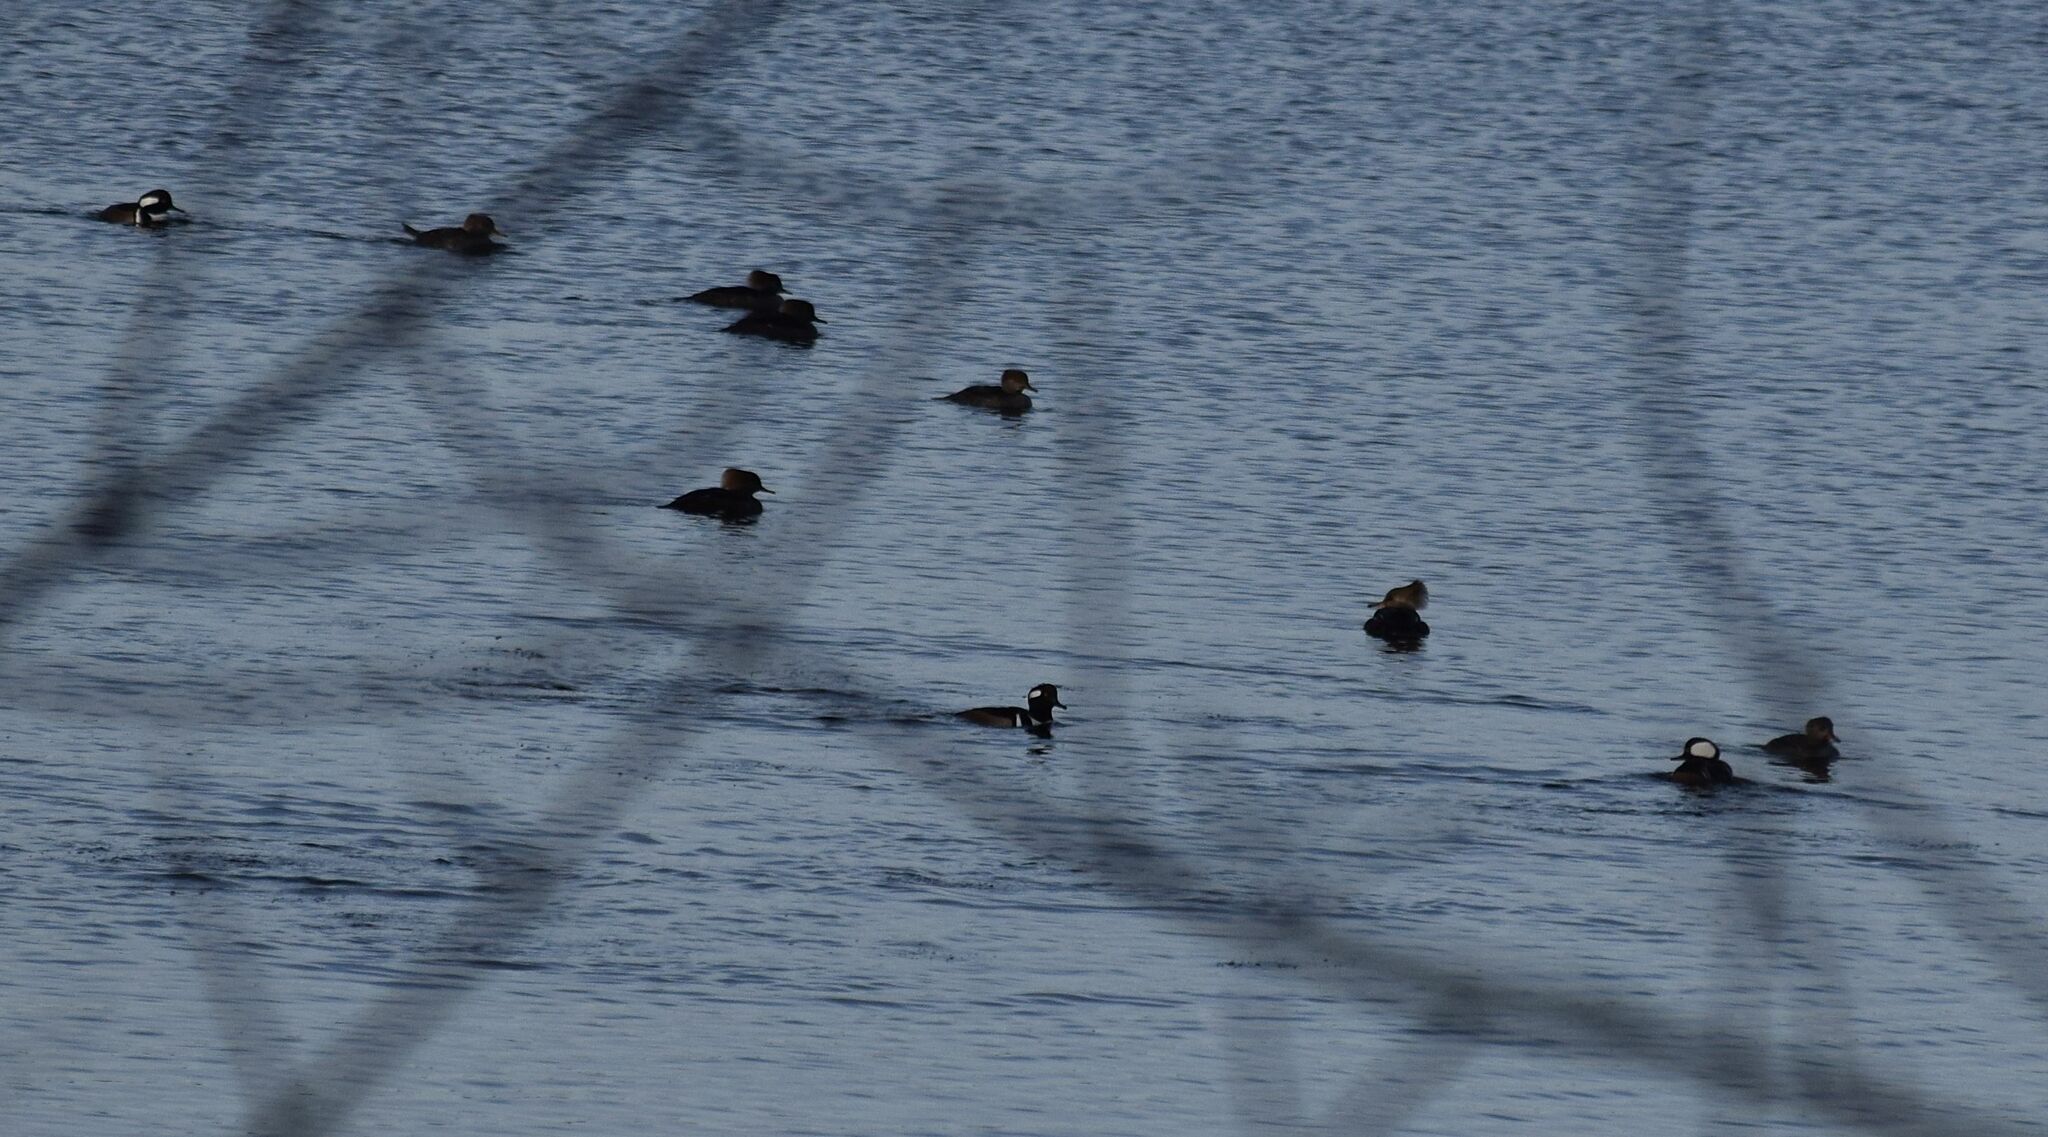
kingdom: Animalia
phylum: Chordata
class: Aves
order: Anseriformes
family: Anatidae
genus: Lophodytes
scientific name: Lophodytes cucullatus
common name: Hooded merganser
